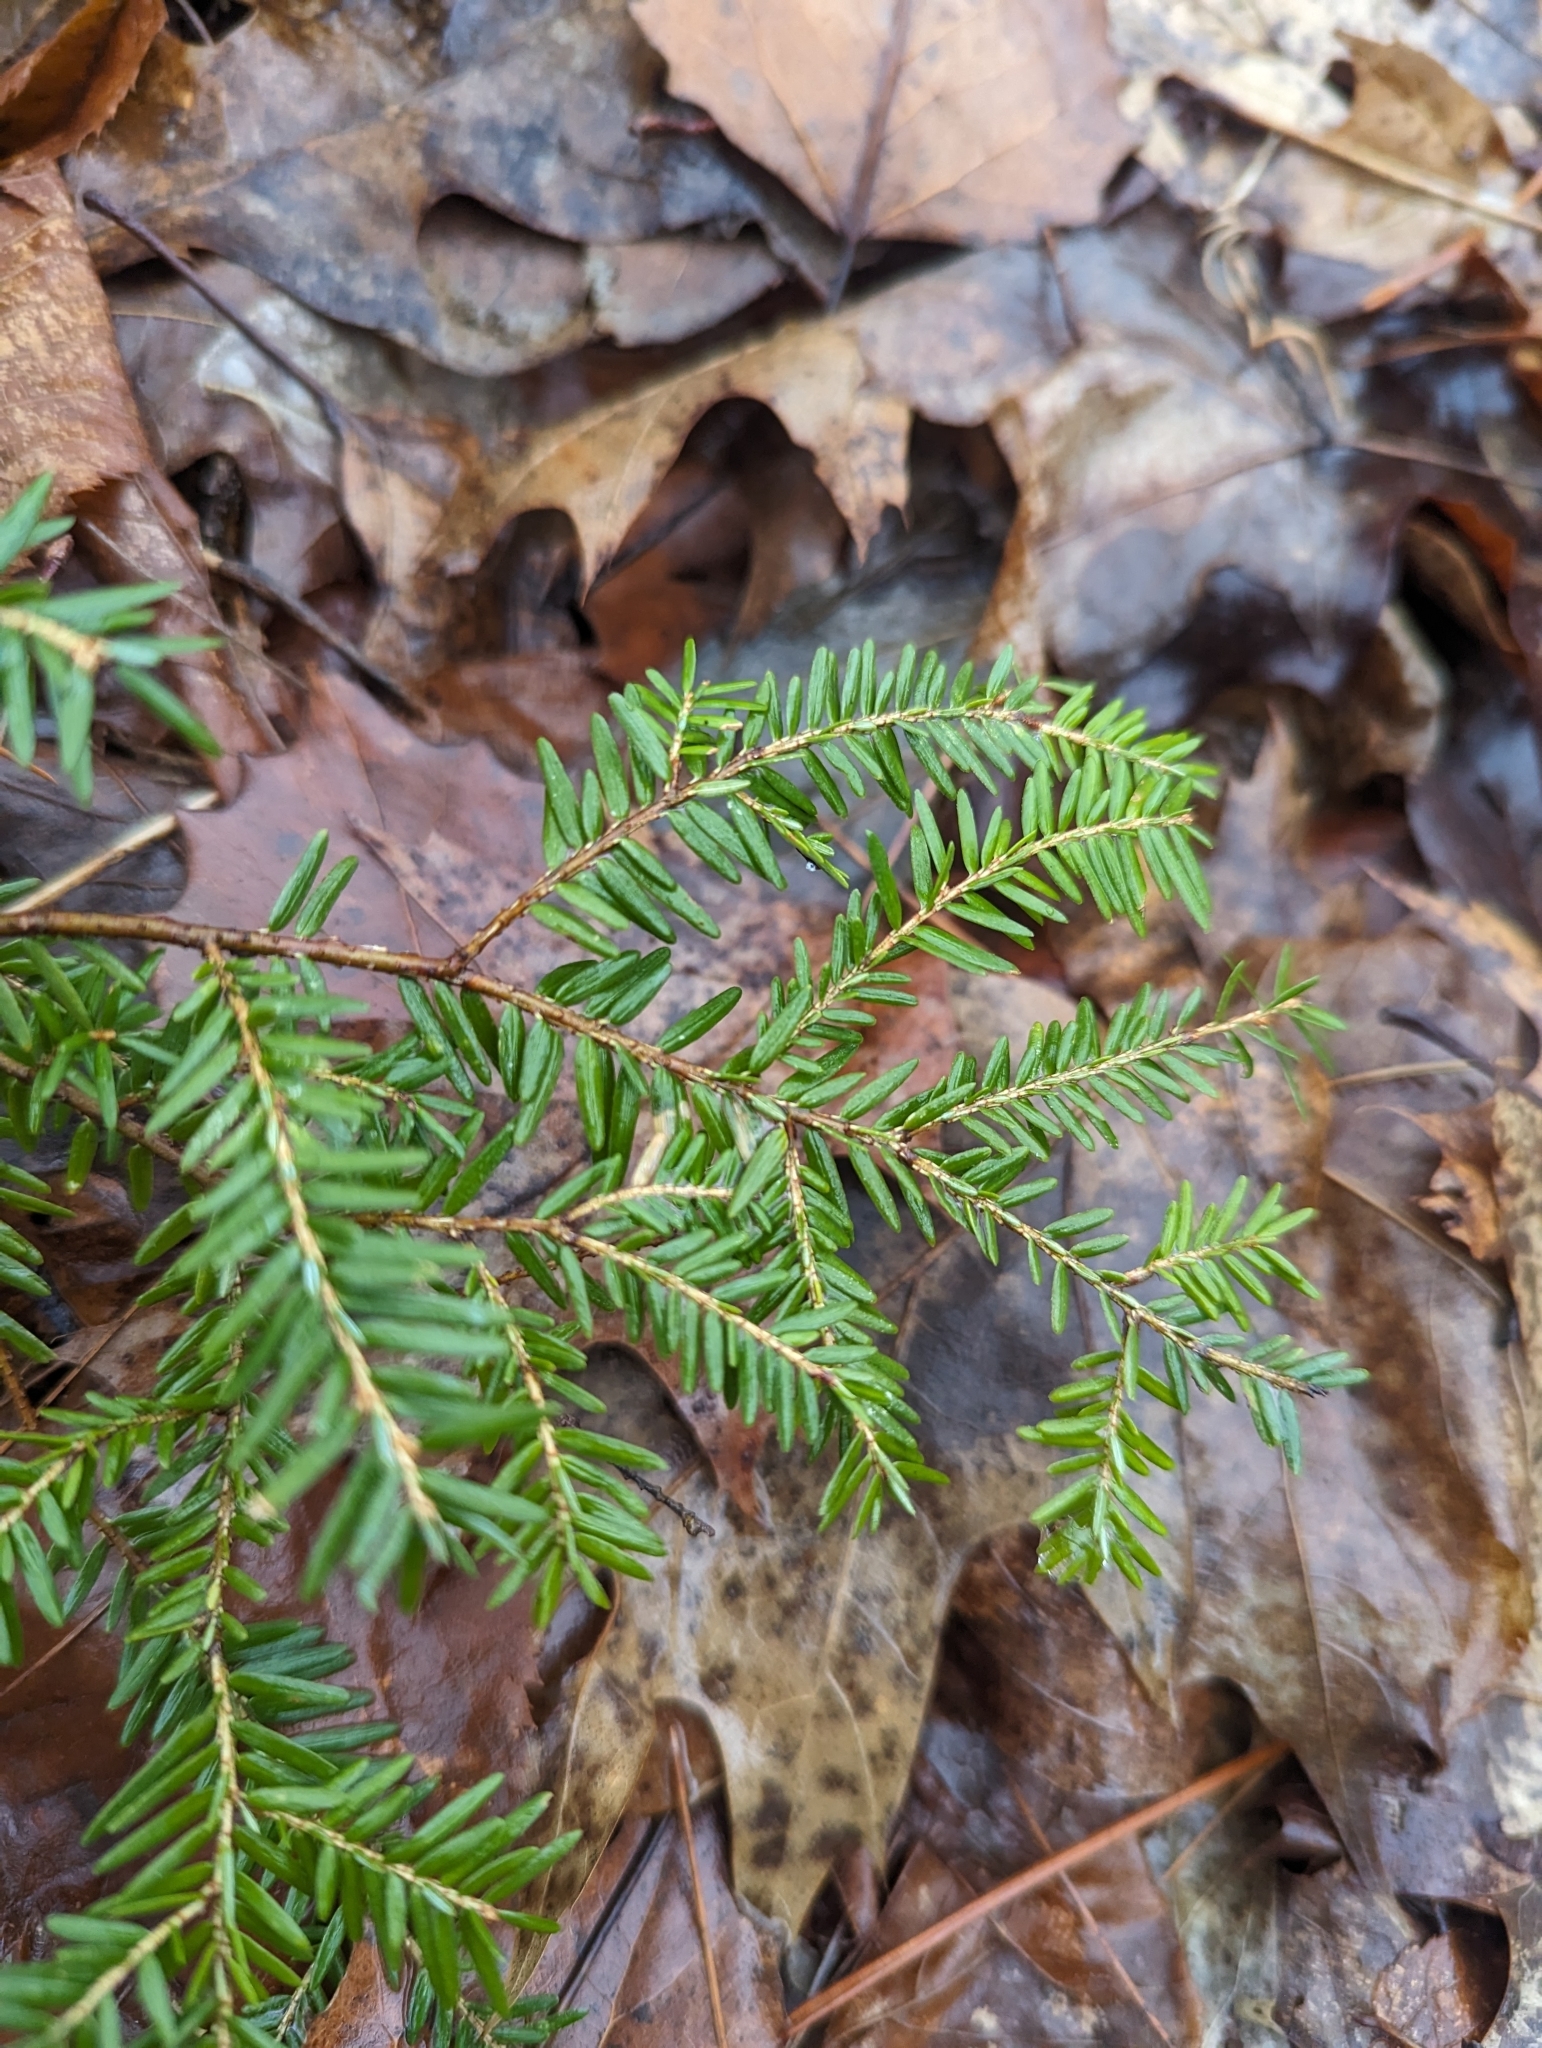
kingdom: Plantae
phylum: Tracheophyta
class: Pinopsida
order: Pinales
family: Pinaceae
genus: Tsuga
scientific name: Tsuga canadensis
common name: Eastern hemlock
